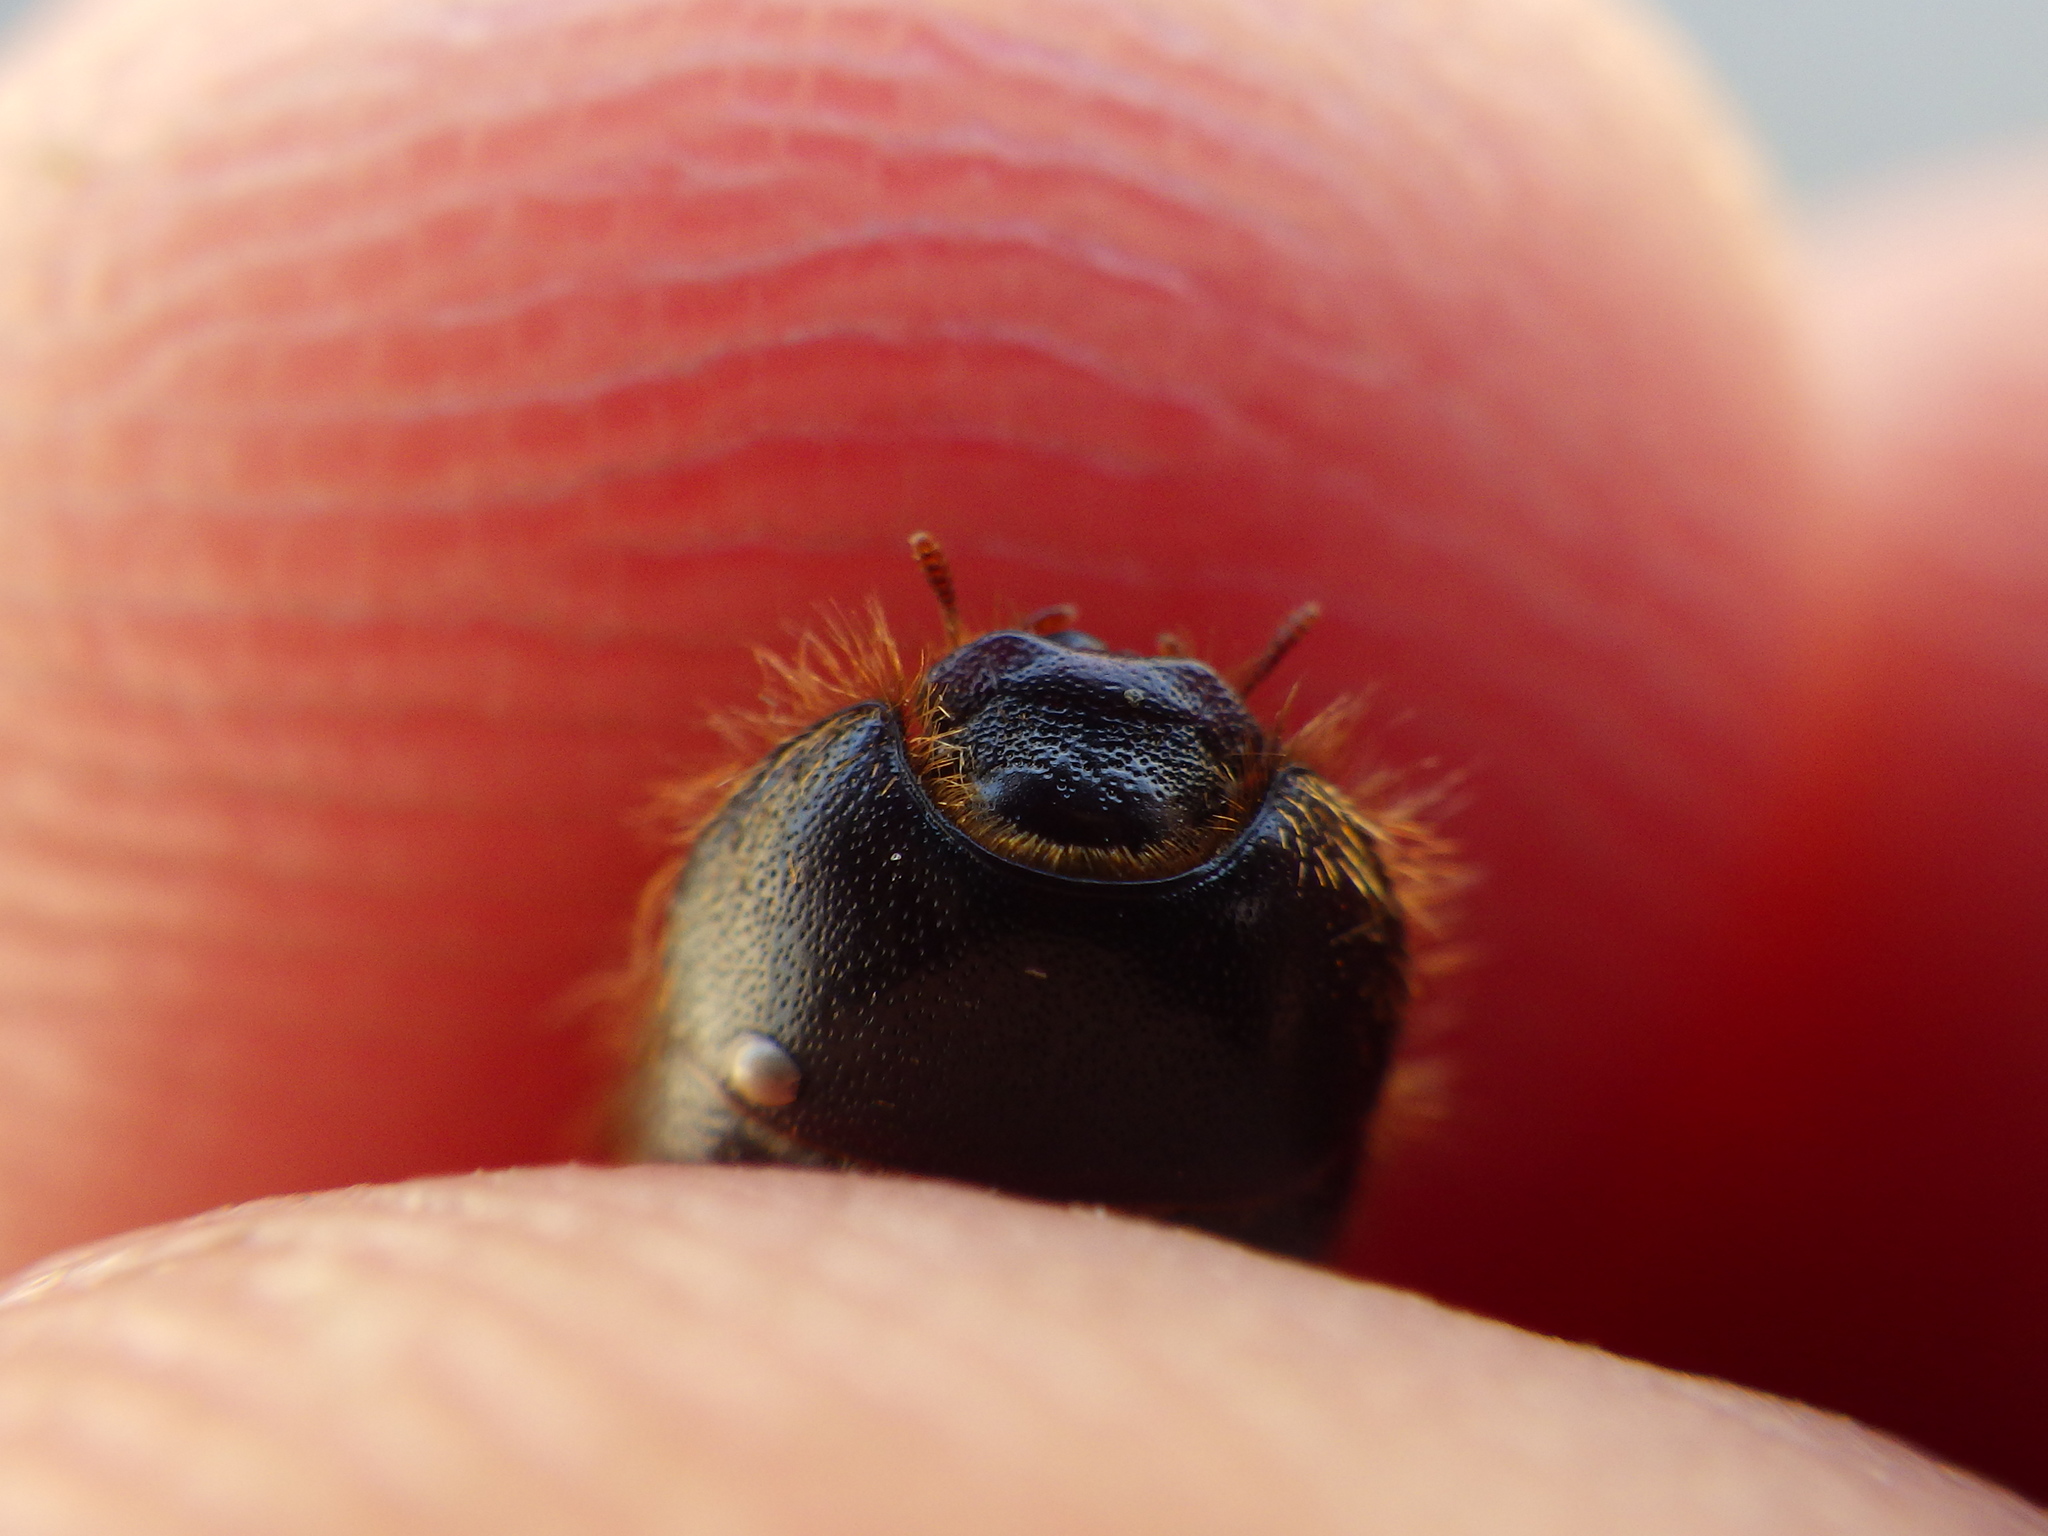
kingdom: Animalia
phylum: Arthropoda
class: Insecta
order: Coleoptera
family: Tenebrionidae
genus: Coelus
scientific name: Coelus ciliatus
